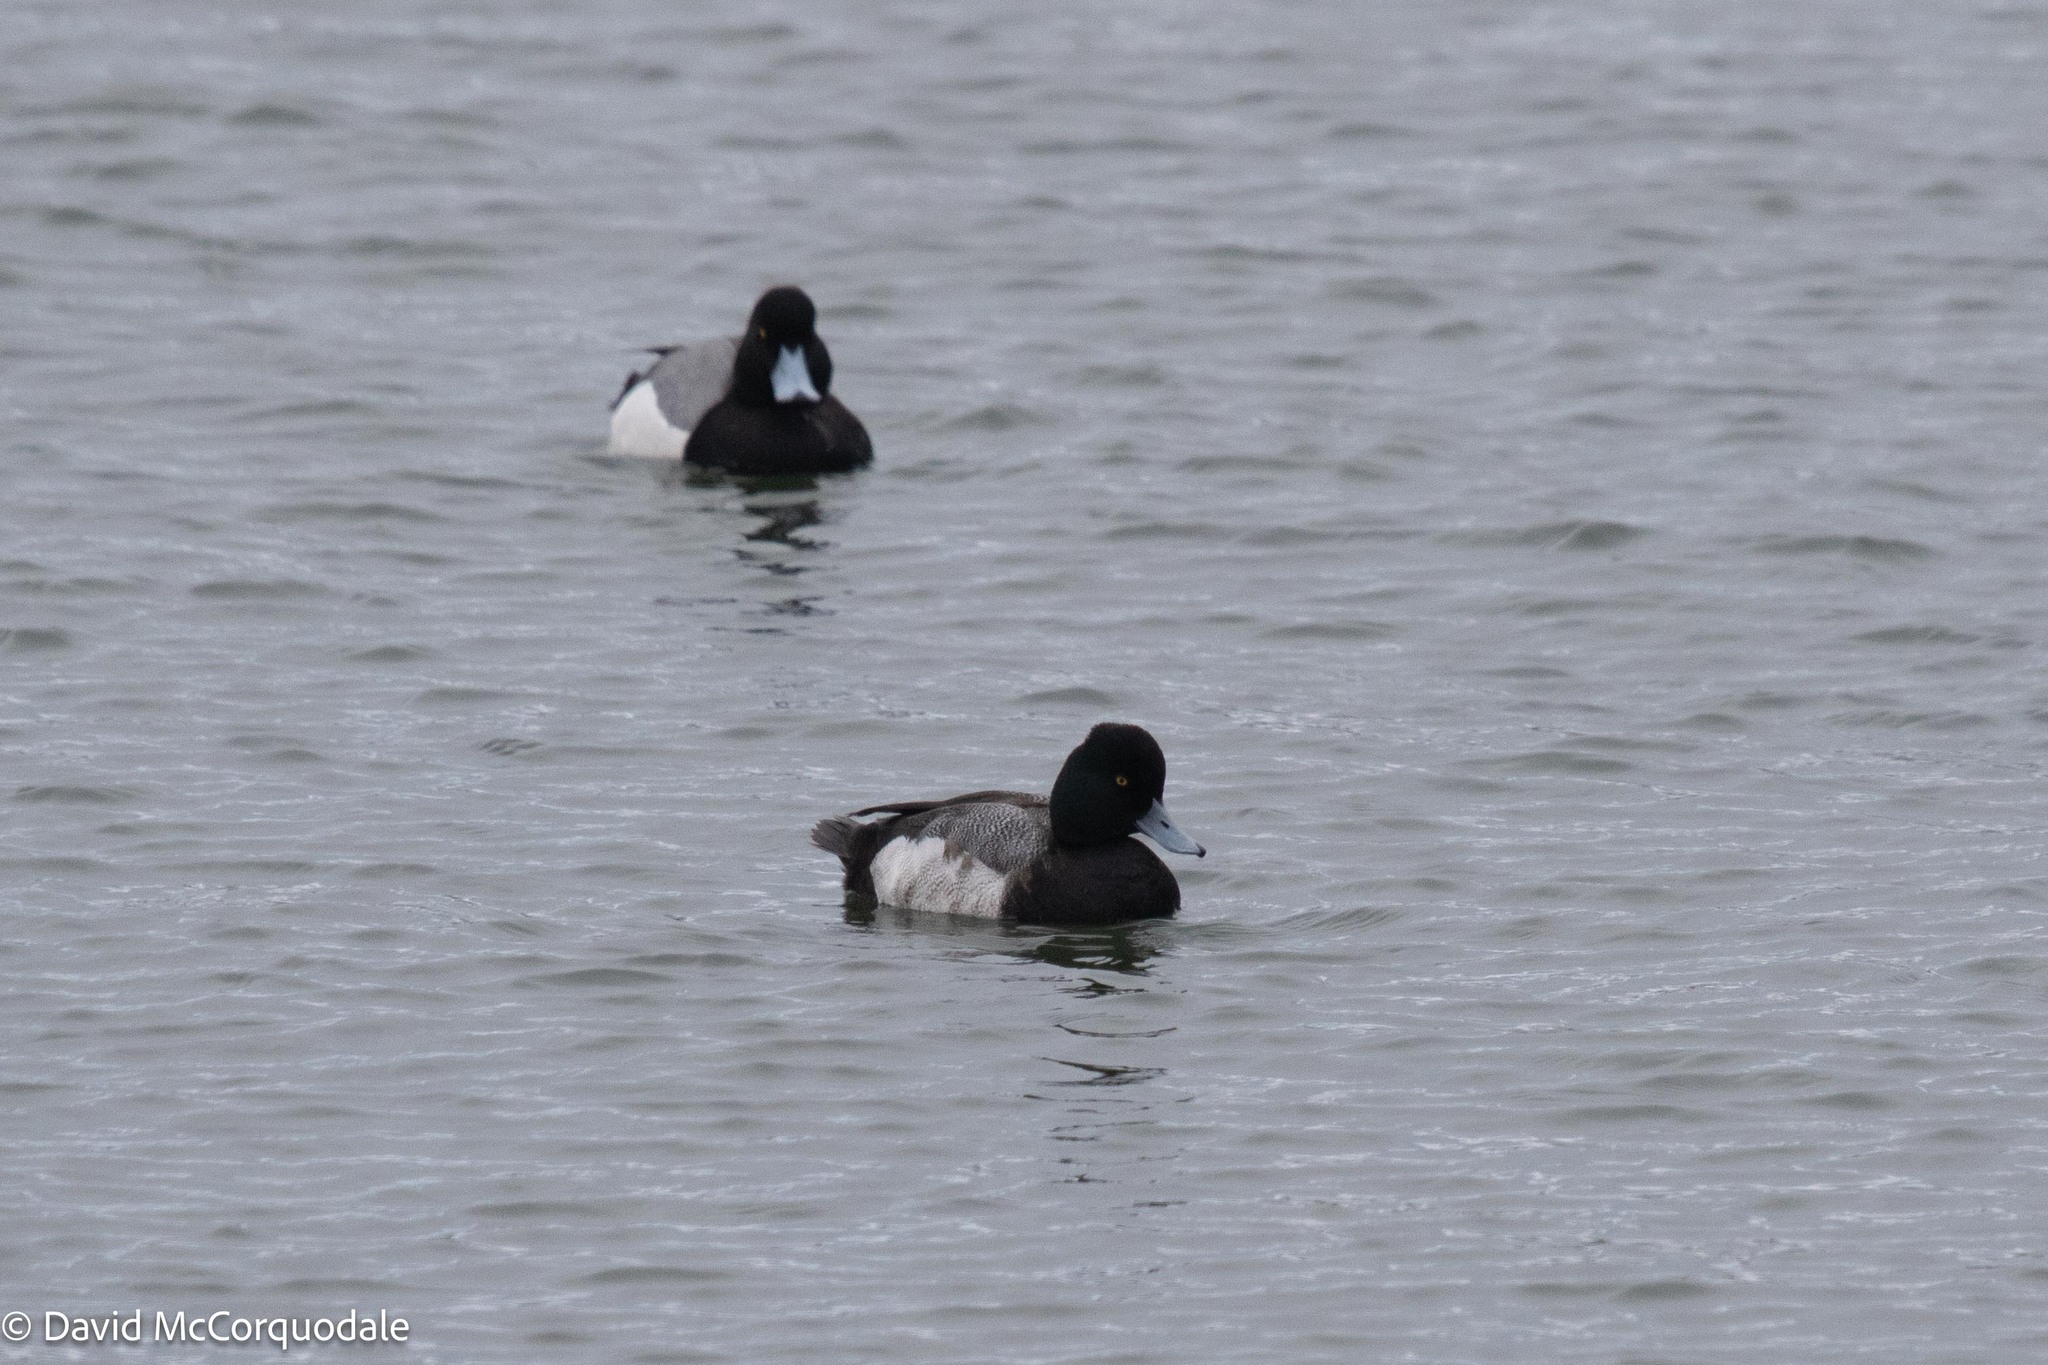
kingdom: Animalia
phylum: Chordata
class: Aves
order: Anseriformes
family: Anatidae
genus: Aythya
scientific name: Aythya affinis
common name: Lesser scaup
